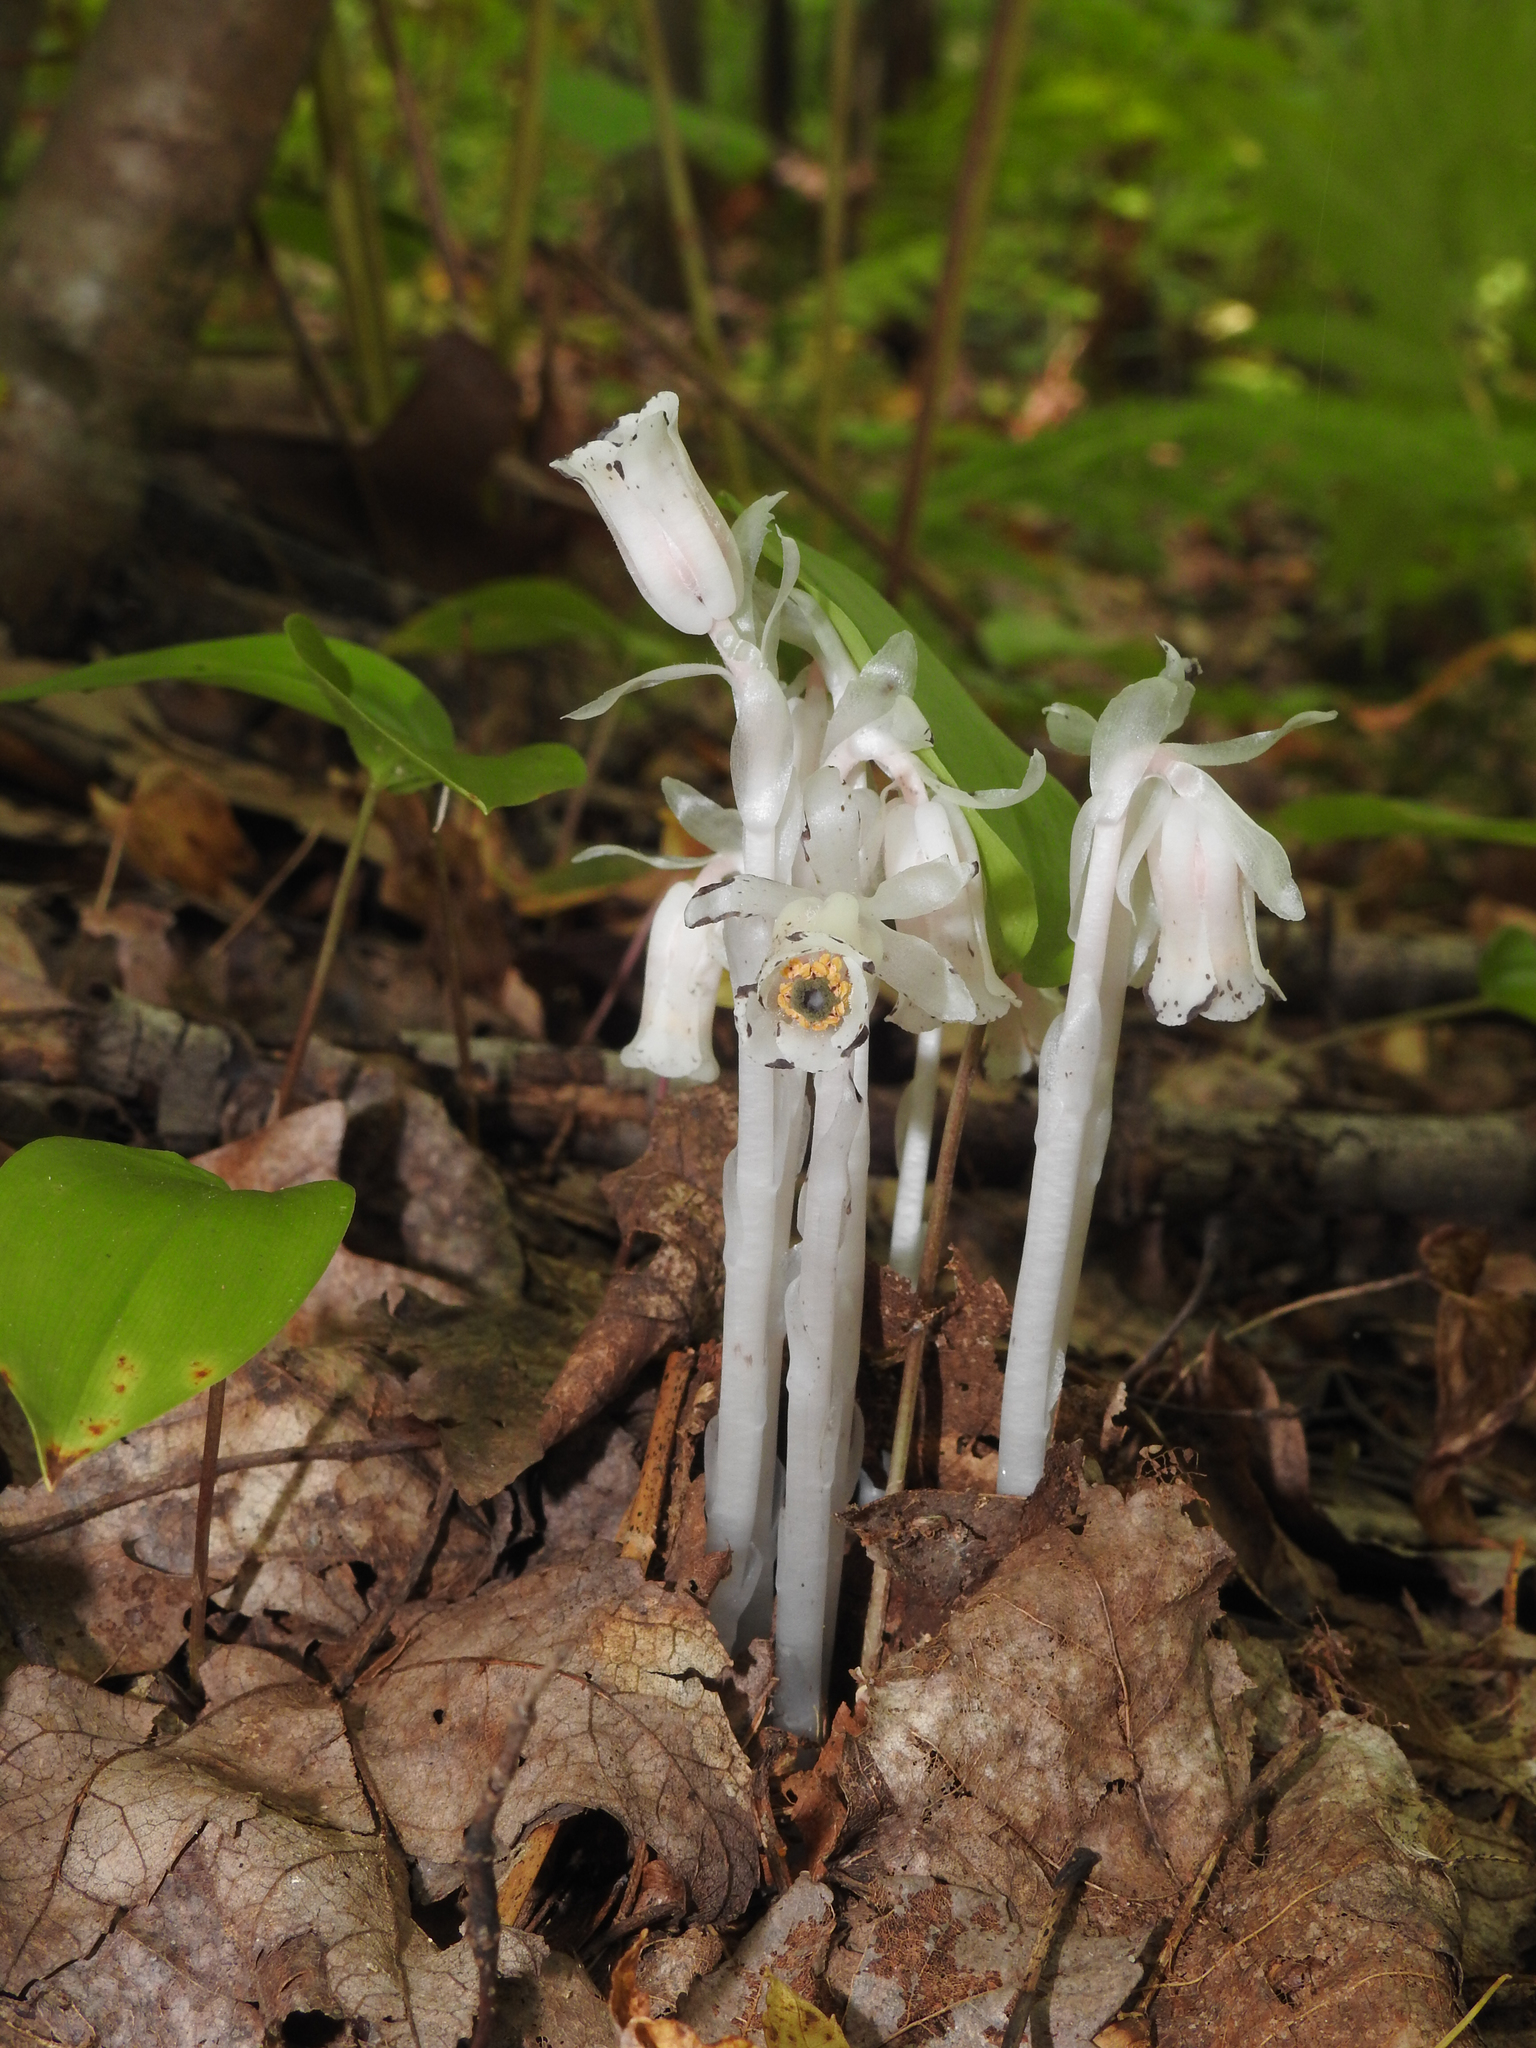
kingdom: Plantae
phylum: Tracheophyta
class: Magnoliopsida
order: Ericales
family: Ericaceae
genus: Monotropa
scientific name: Monotropa uniflora
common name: Convulsion root
